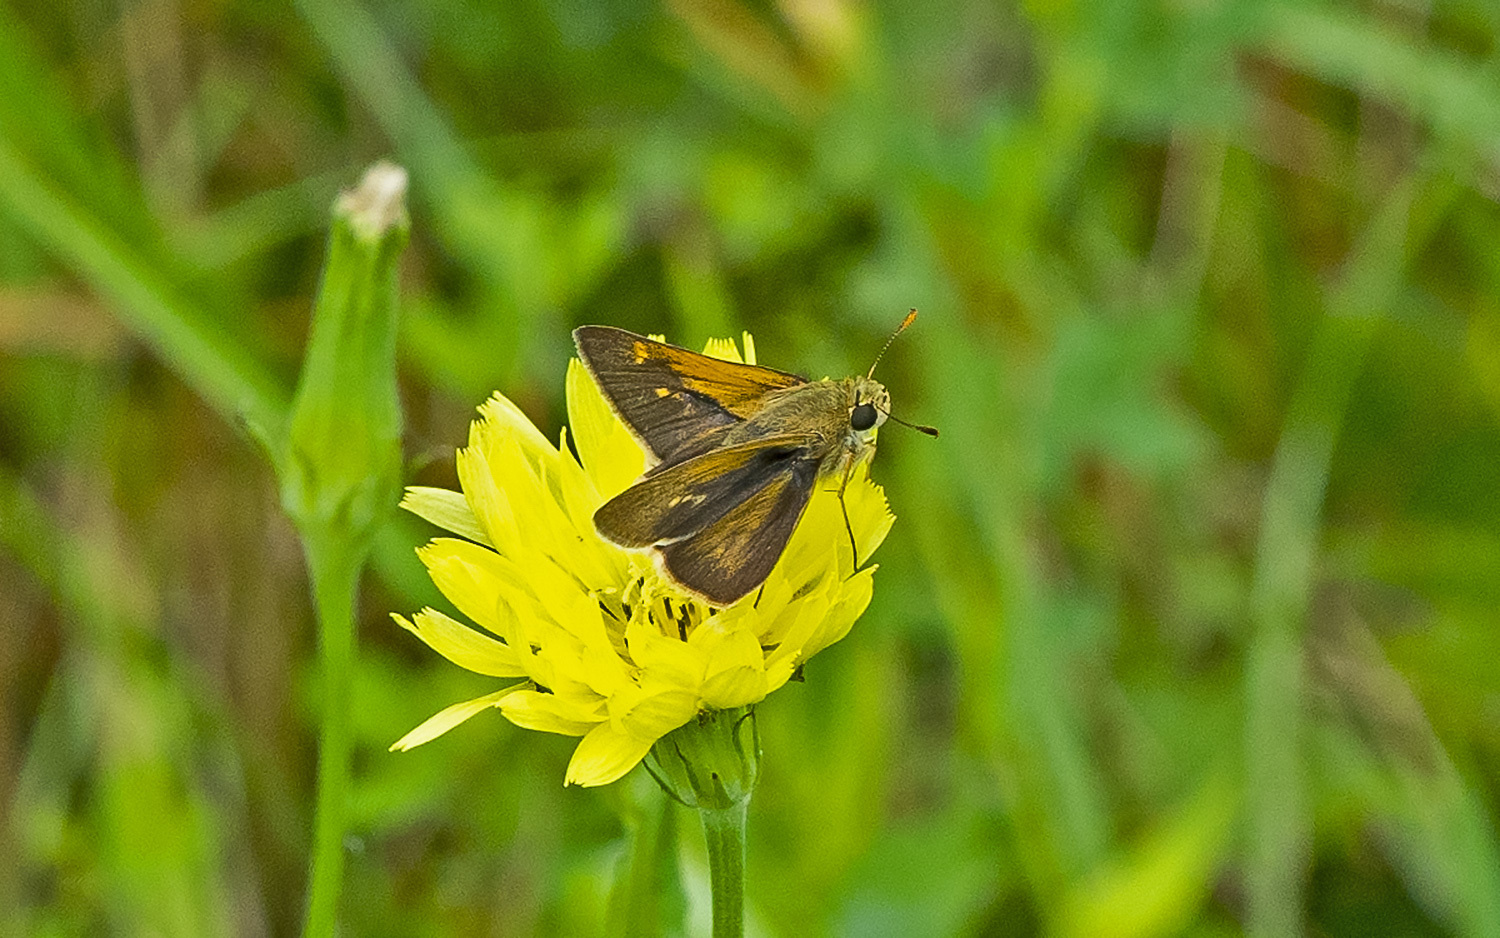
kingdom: Animalia
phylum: Arthropoda
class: Insecta
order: Lepidoptera
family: Hesperiidae
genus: Polites
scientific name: Polites origenes
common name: Crossline skipper
